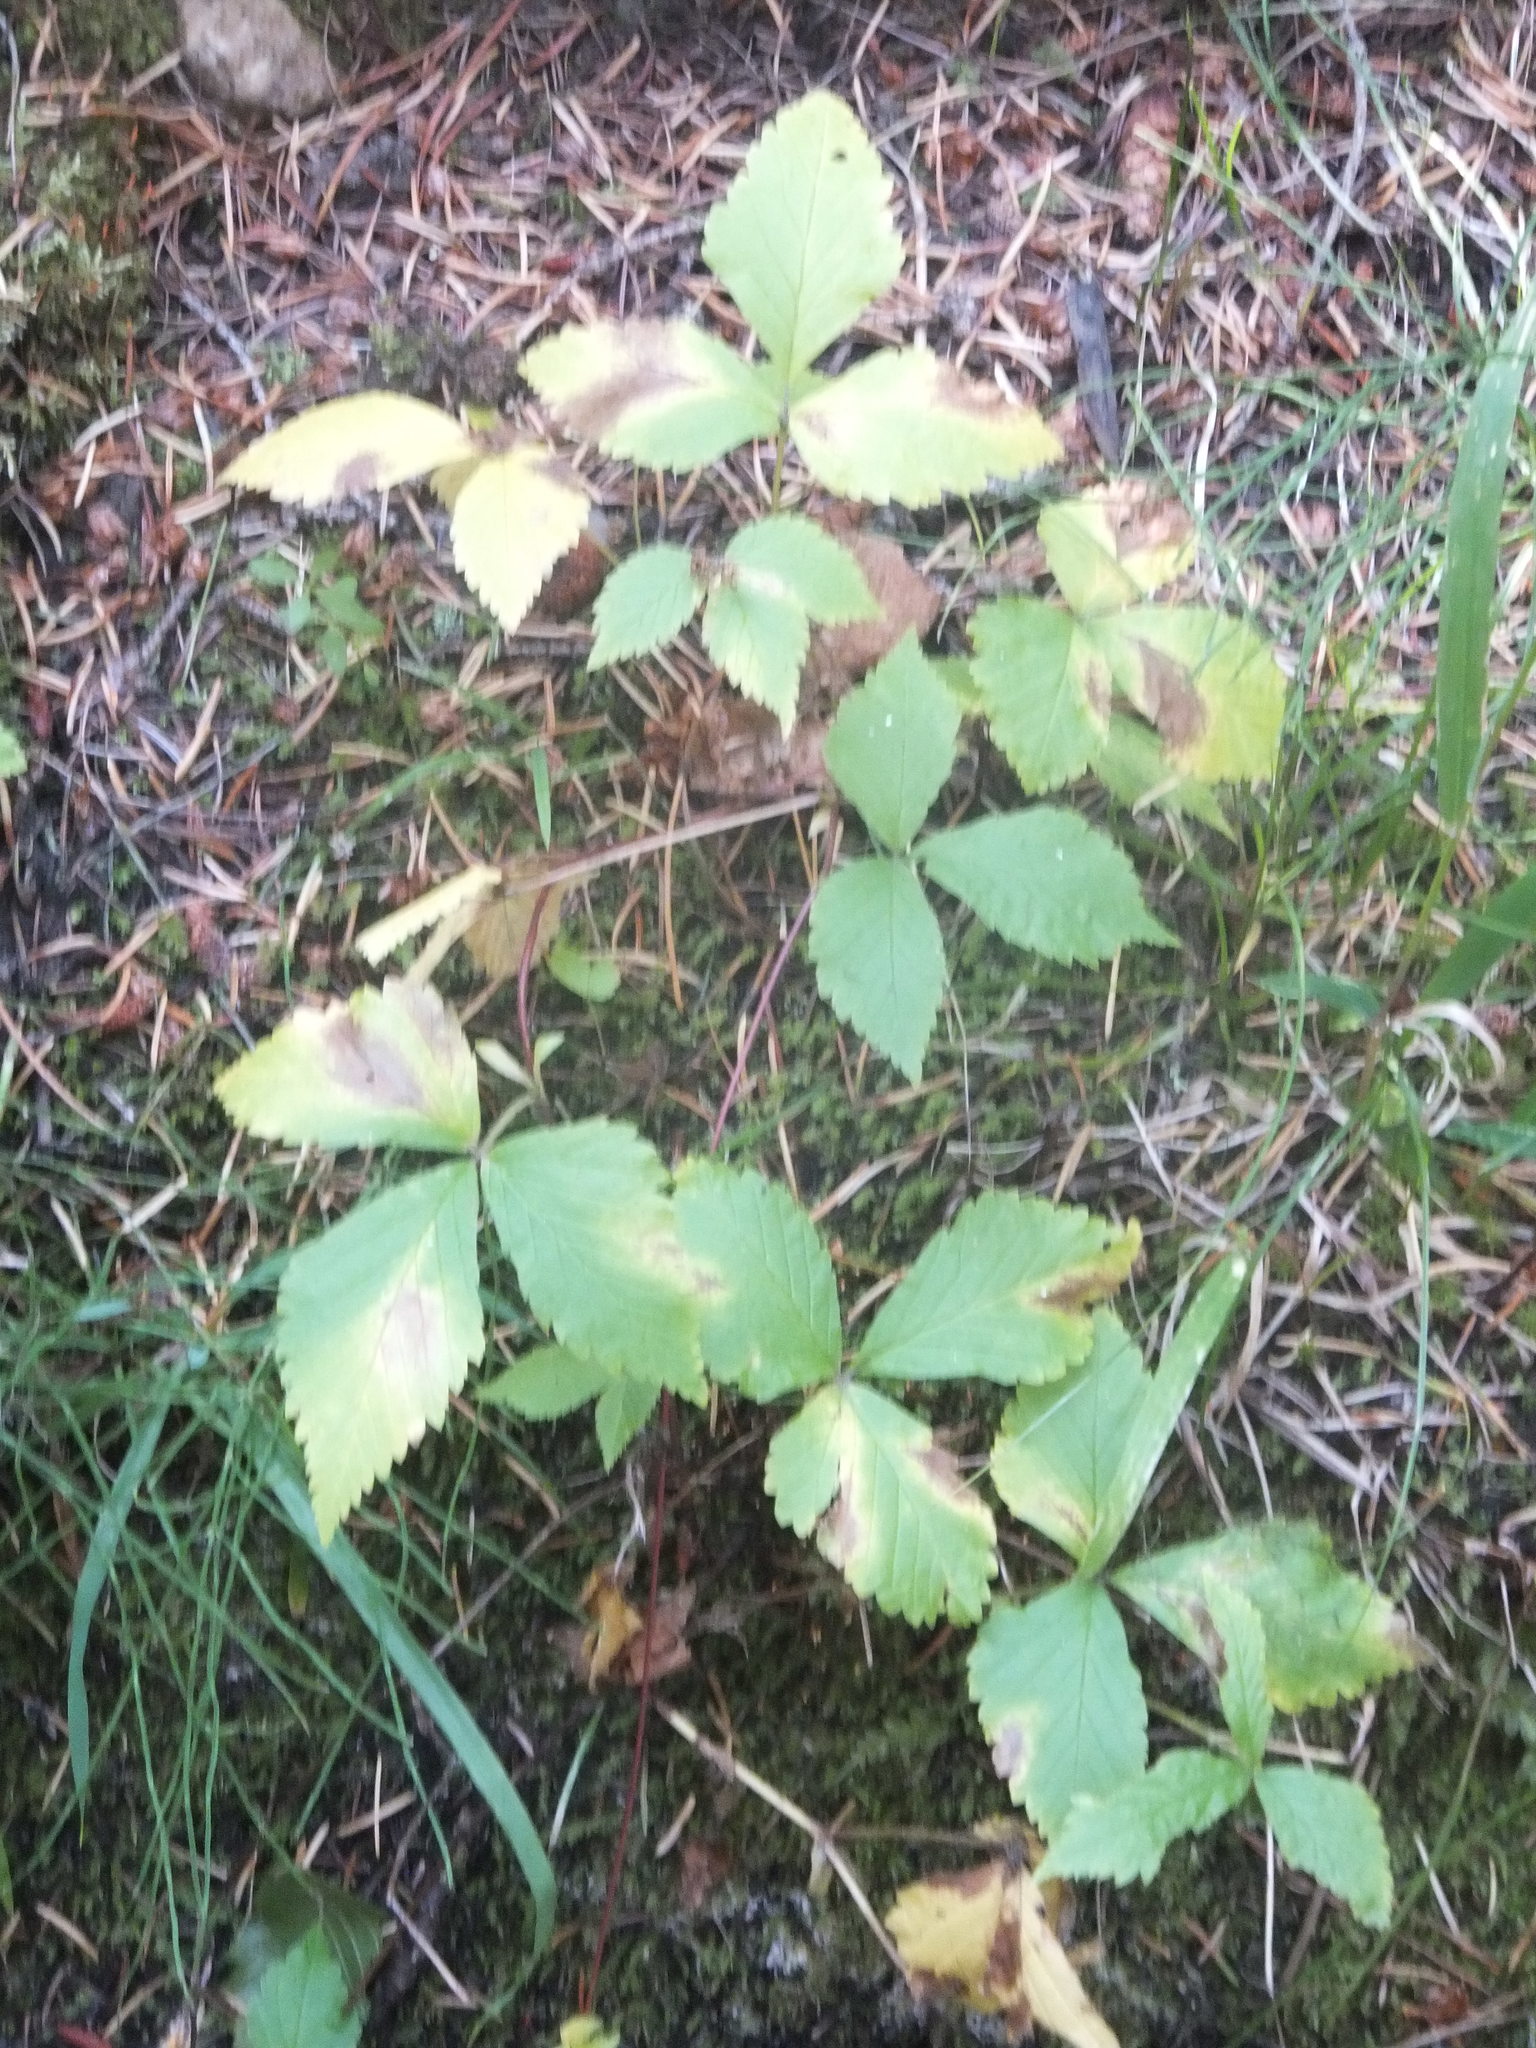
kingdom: Plantae
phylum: Tracheophyta
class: Magnoliopsida
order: Rosales
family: Rosaceae
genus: Rubus
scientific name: Rubus pubescens
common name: Dwarf raspberry
